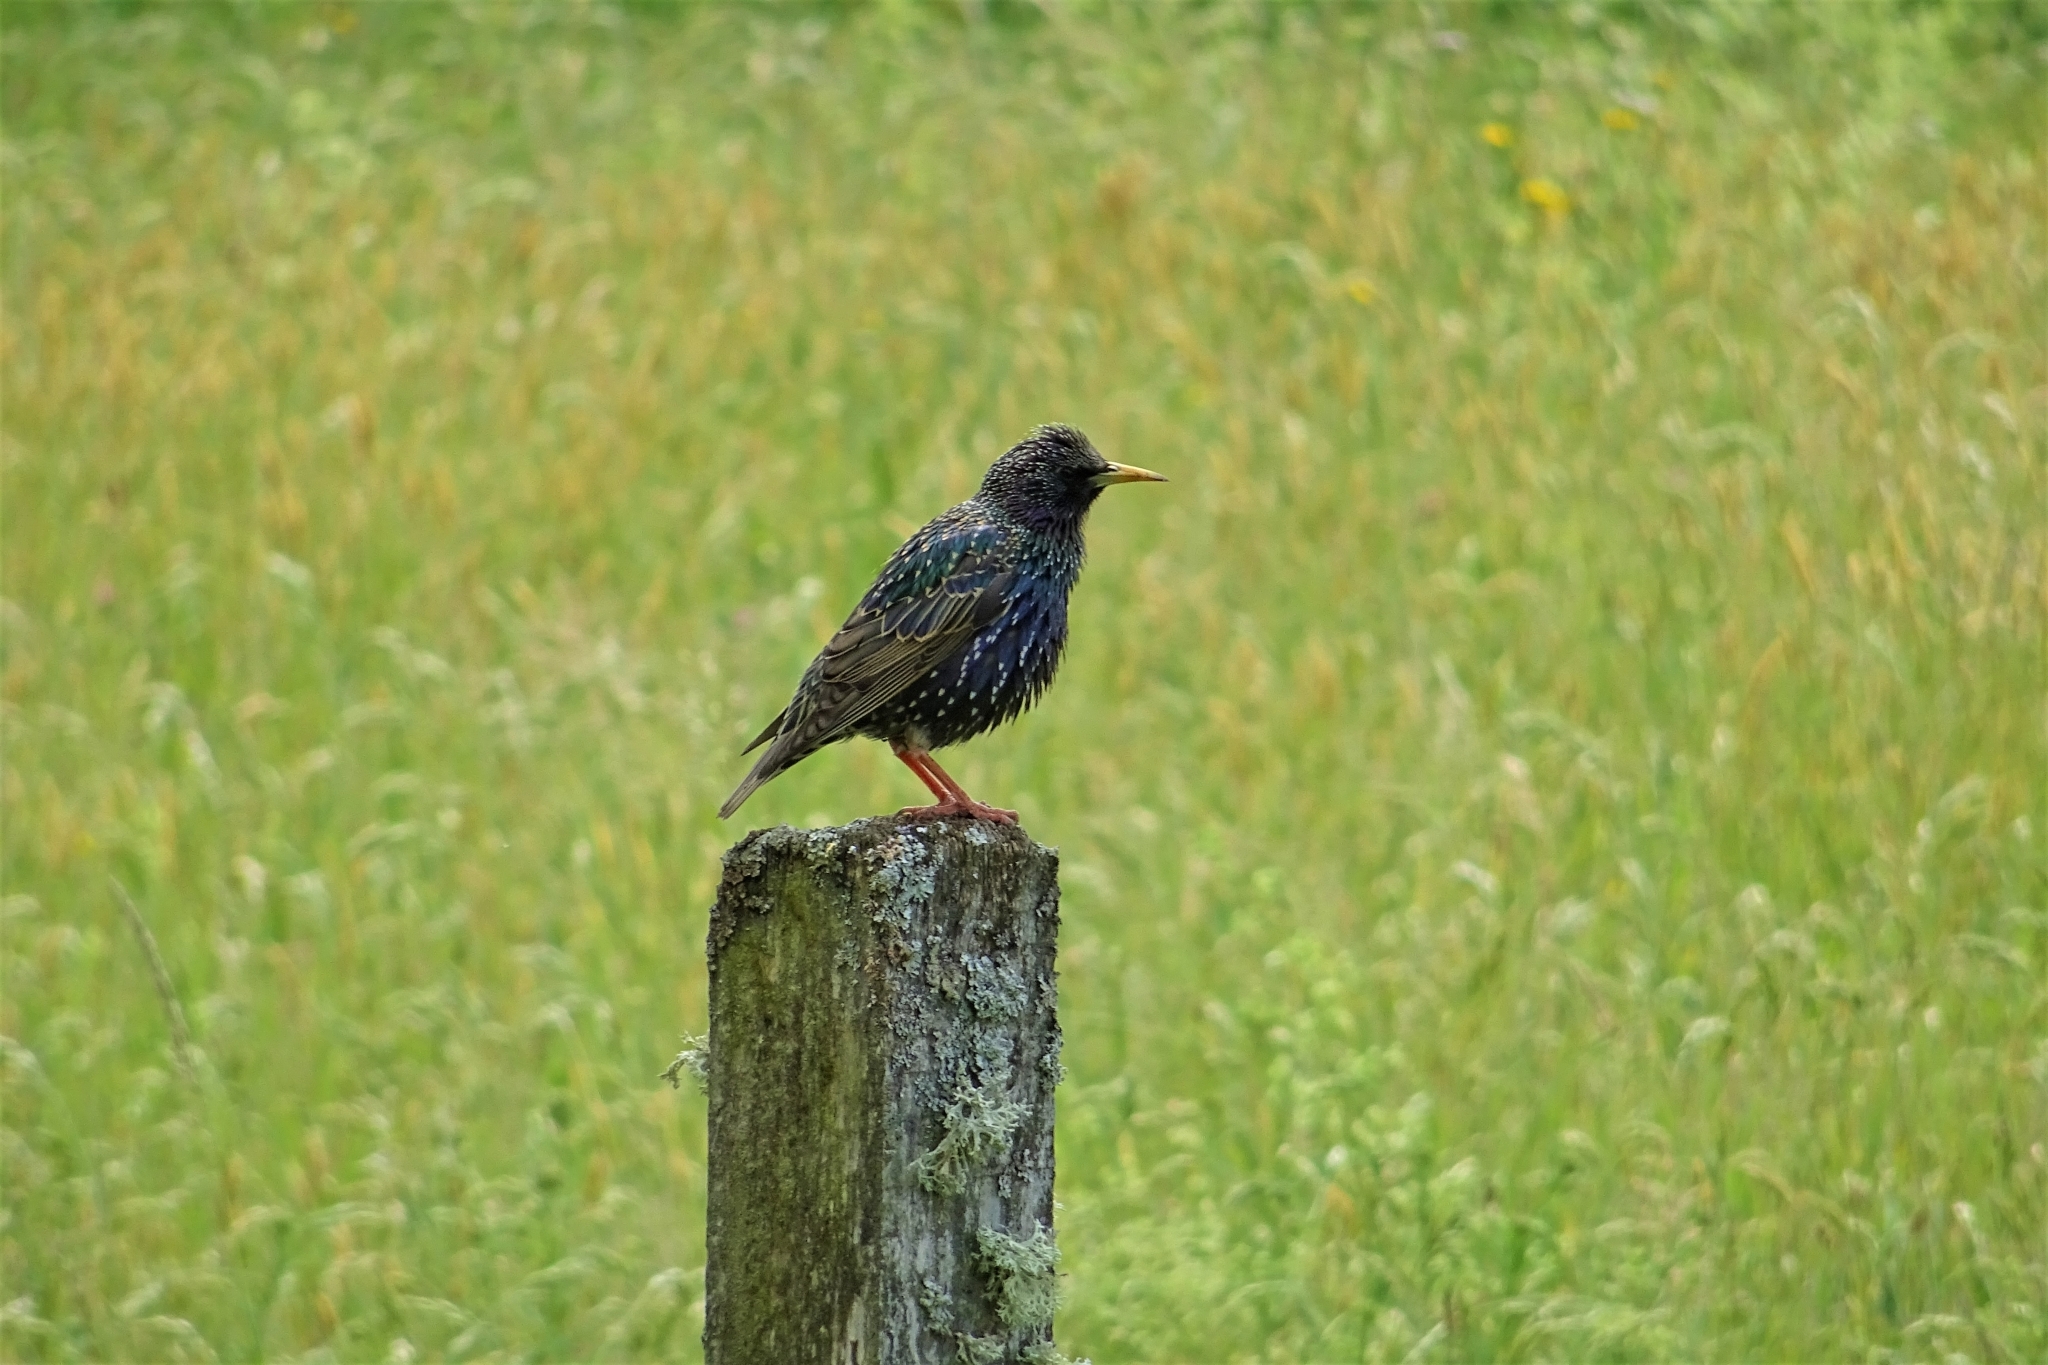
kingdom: Animalia
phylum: Chordata
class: Aves
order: Passeriformes
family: Sturnidae
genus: Sturnus
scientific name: Sturnus vulgaris
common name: Common starling
